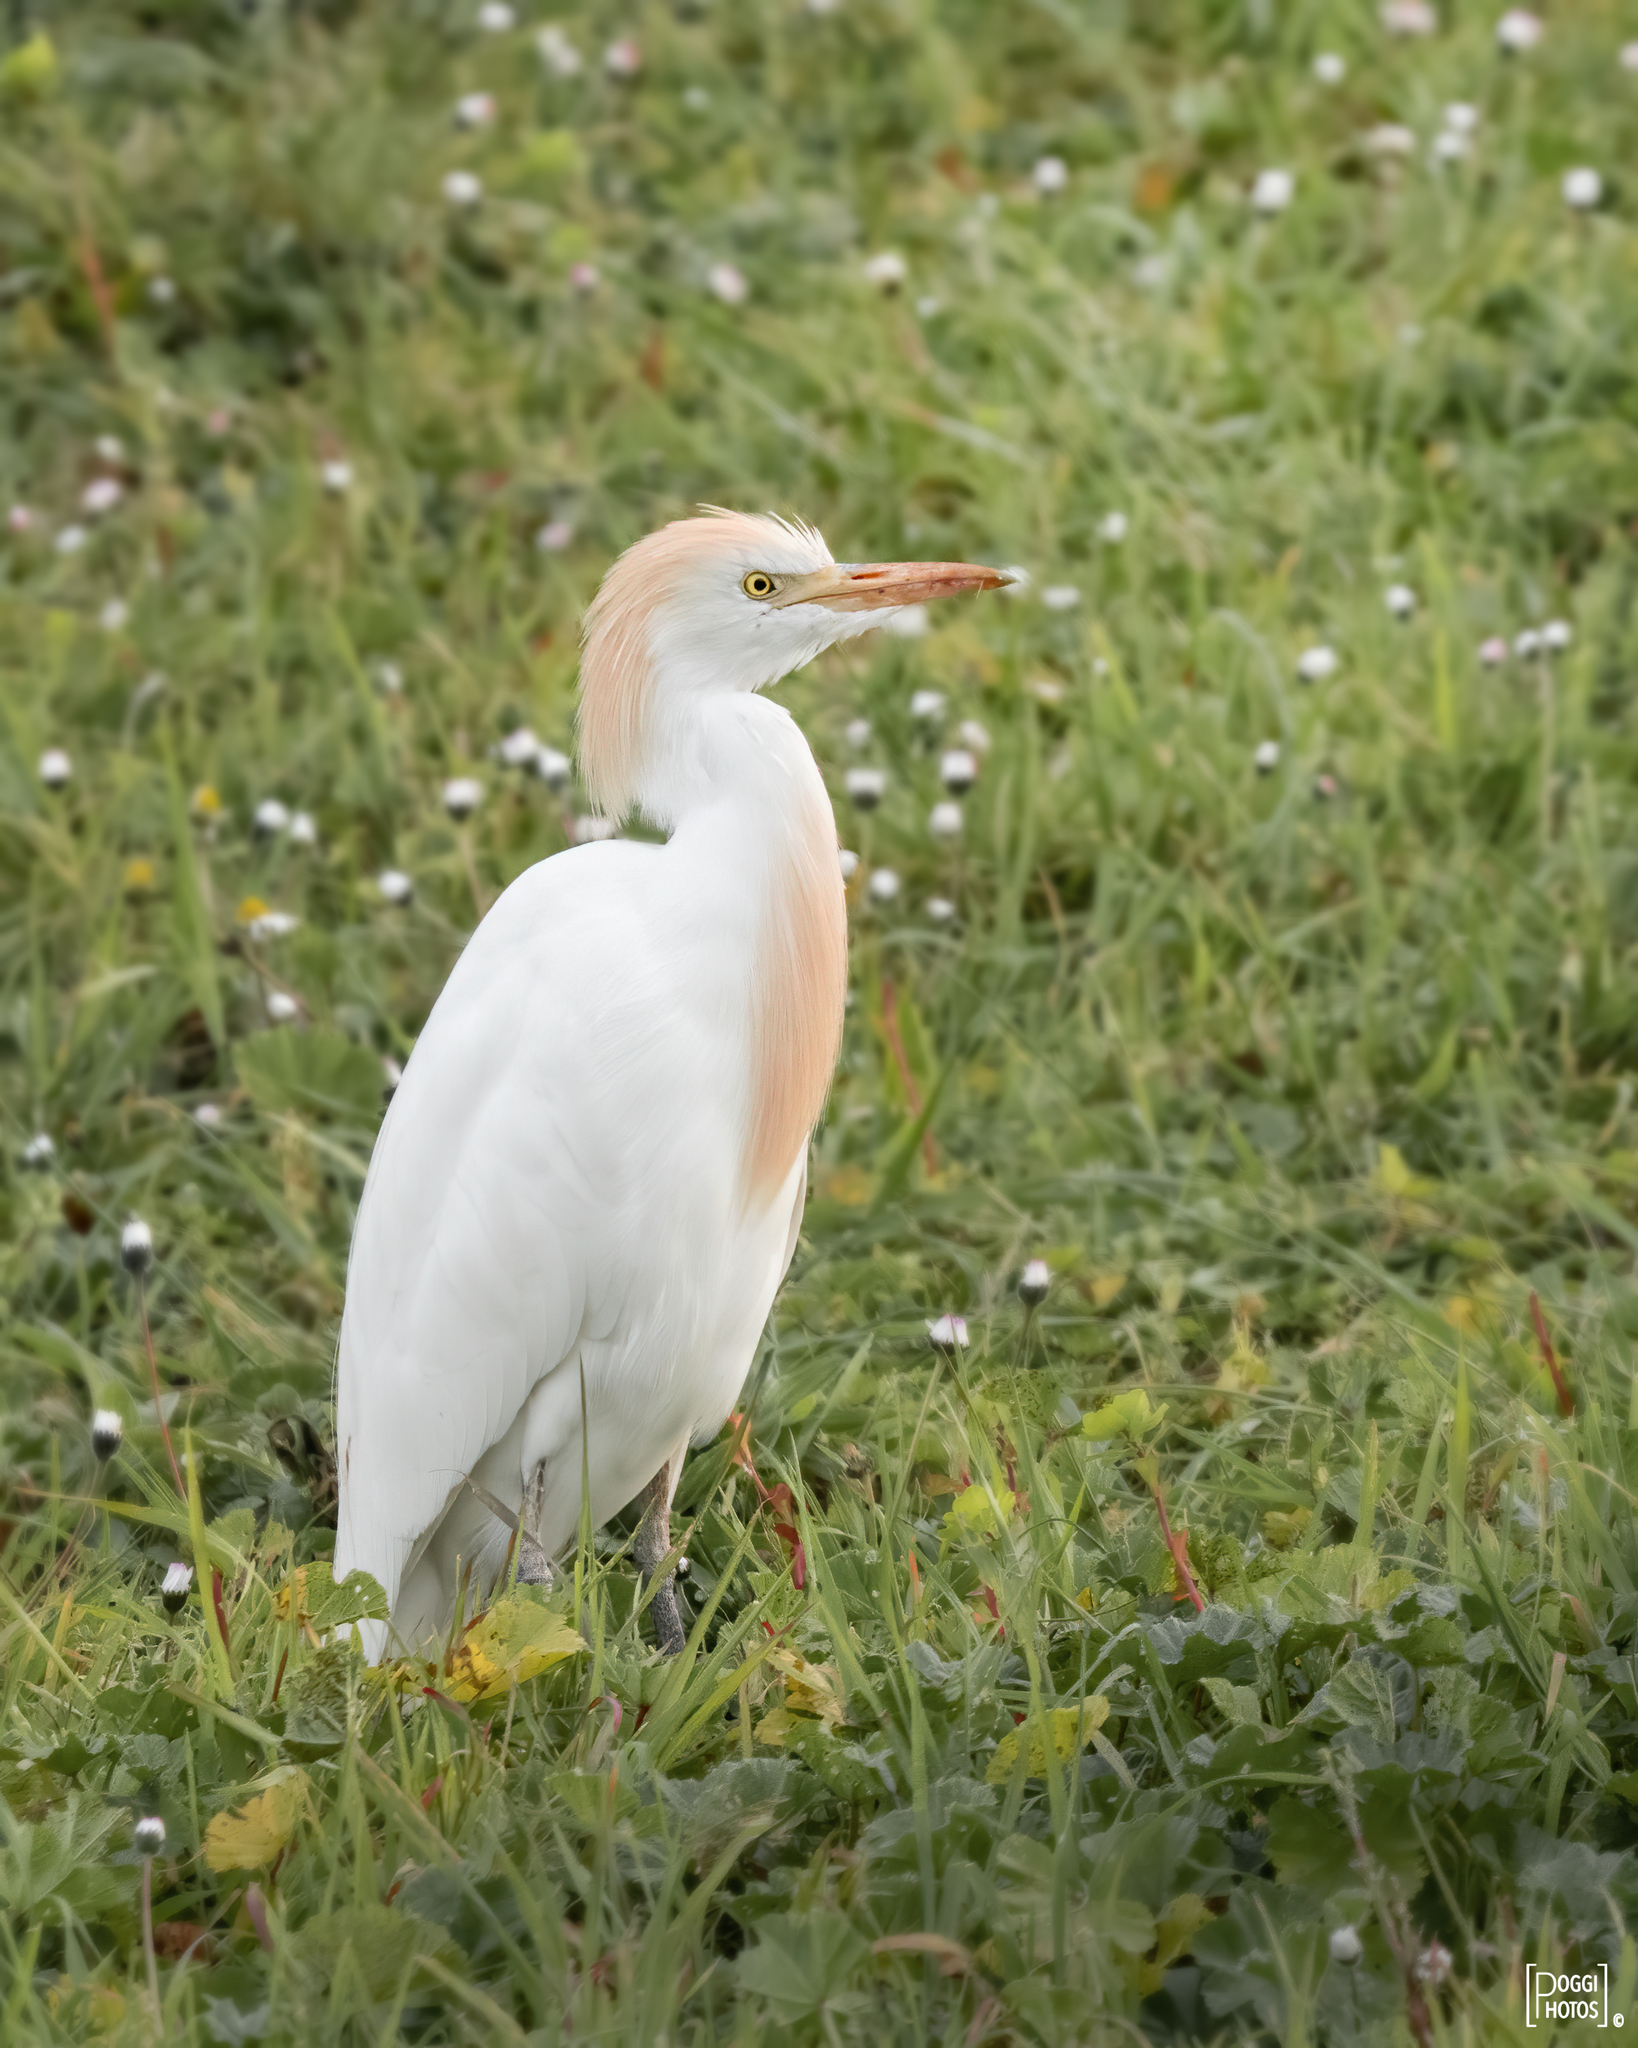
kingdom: Animalia
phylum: Chordata
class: Aves
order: Pelecaniformes
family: Ardeidae
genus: Bubulcus
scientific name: Bubulcus ibis
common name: Cattle egret
